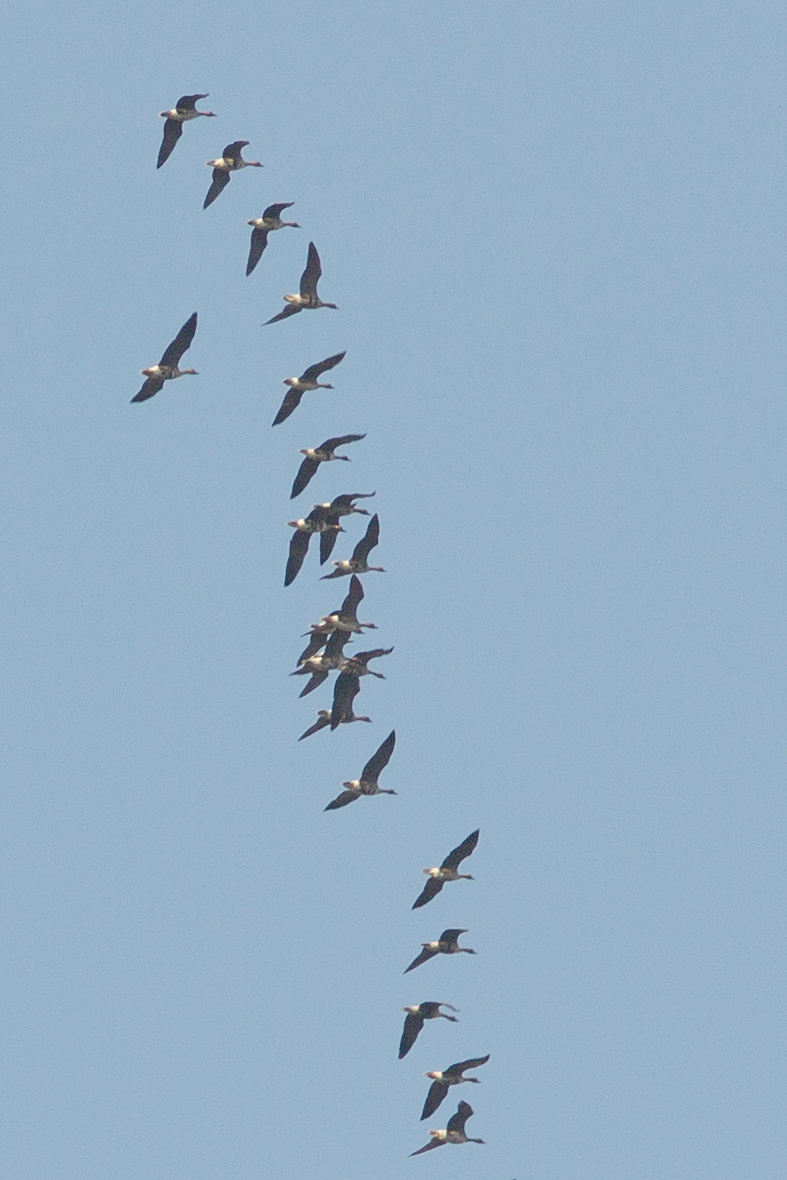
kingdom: Animalia
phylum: Chordata
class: Aves
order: Anseriformes
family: Anatidae
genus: Anser
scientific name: Anser albifrons
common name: Greater white-fronted goose
